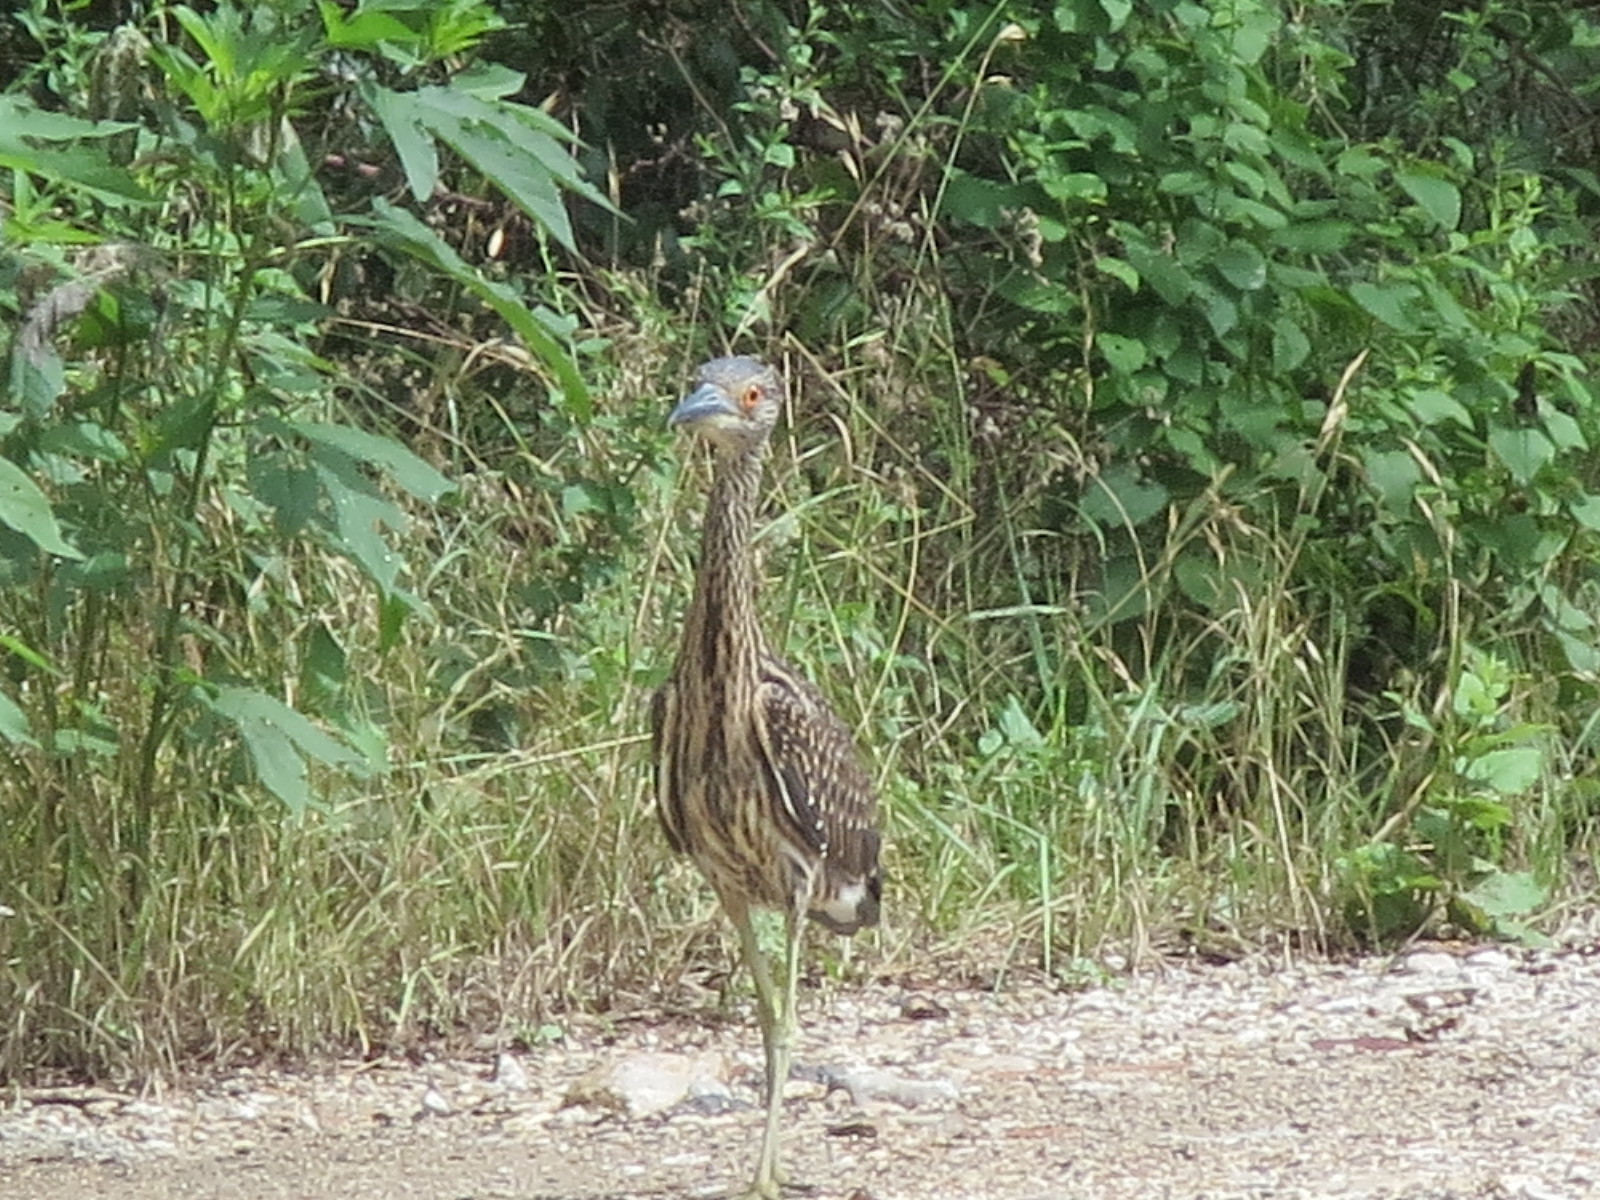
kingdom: Animalia
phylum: Chordata
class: Aves
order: Pelecaniformes
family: Ardeidae
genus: Nyctanassa
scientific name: Nyctanassa violacea
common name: Yellow-crowned night heron
